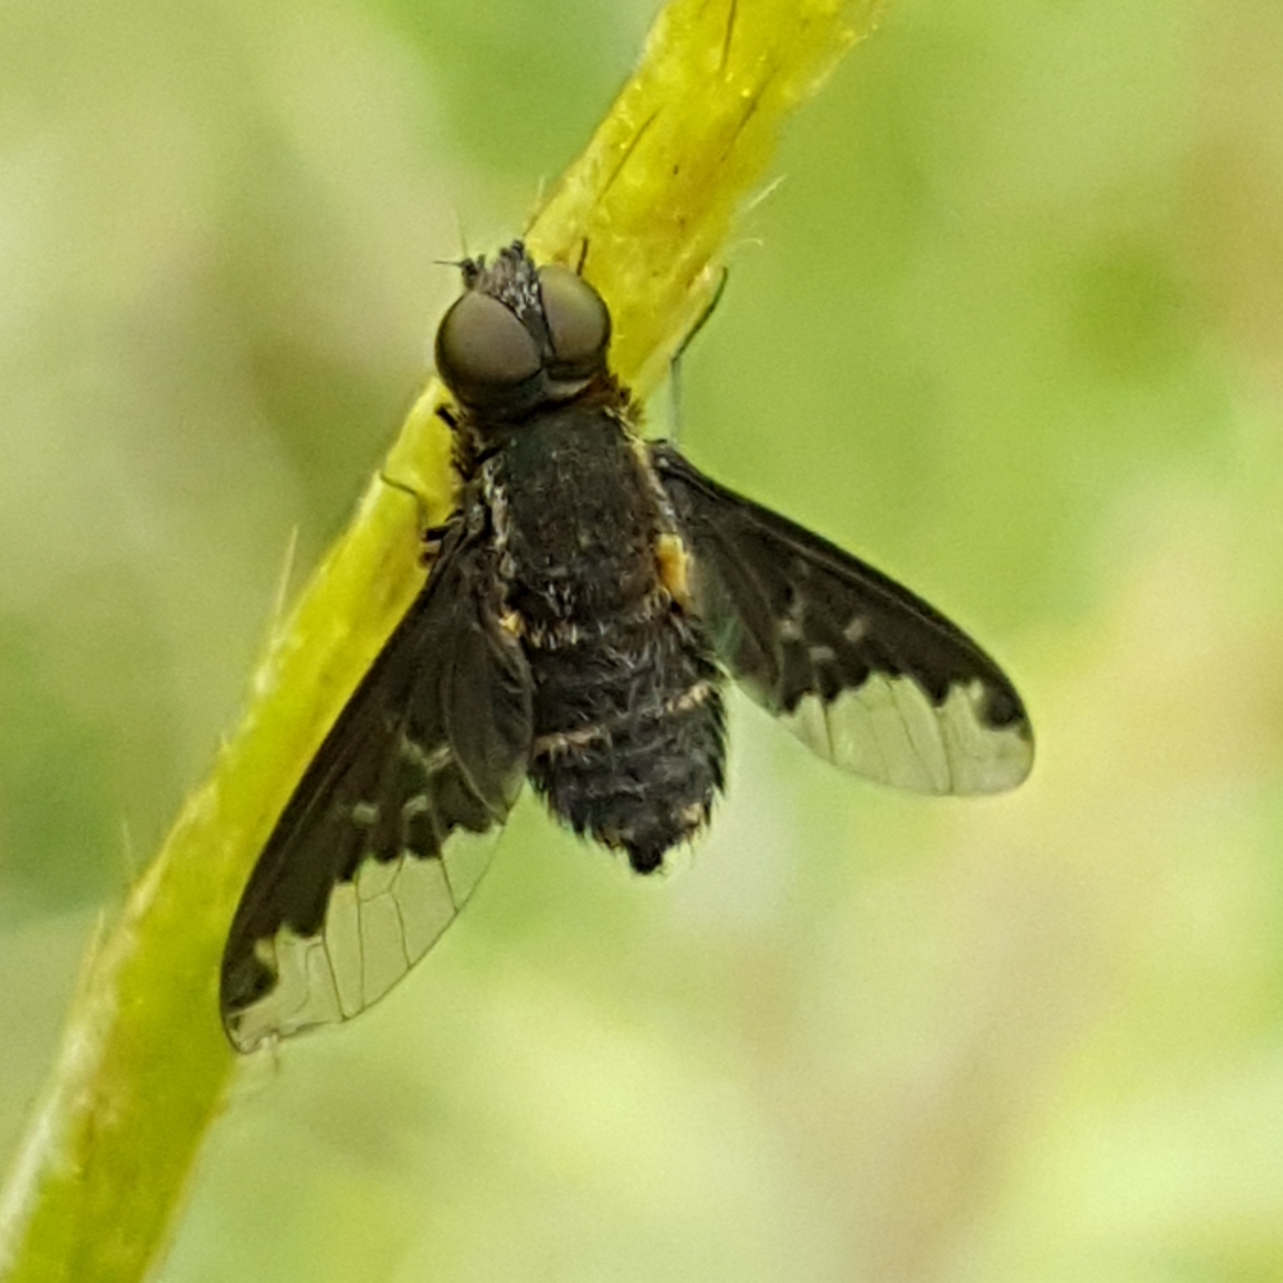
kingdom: Animalia
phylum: Arthropoda
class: Insecta
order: Diptera
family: Bombyliidae
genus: Hemipenthes
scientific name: Hemipenthes velutina
